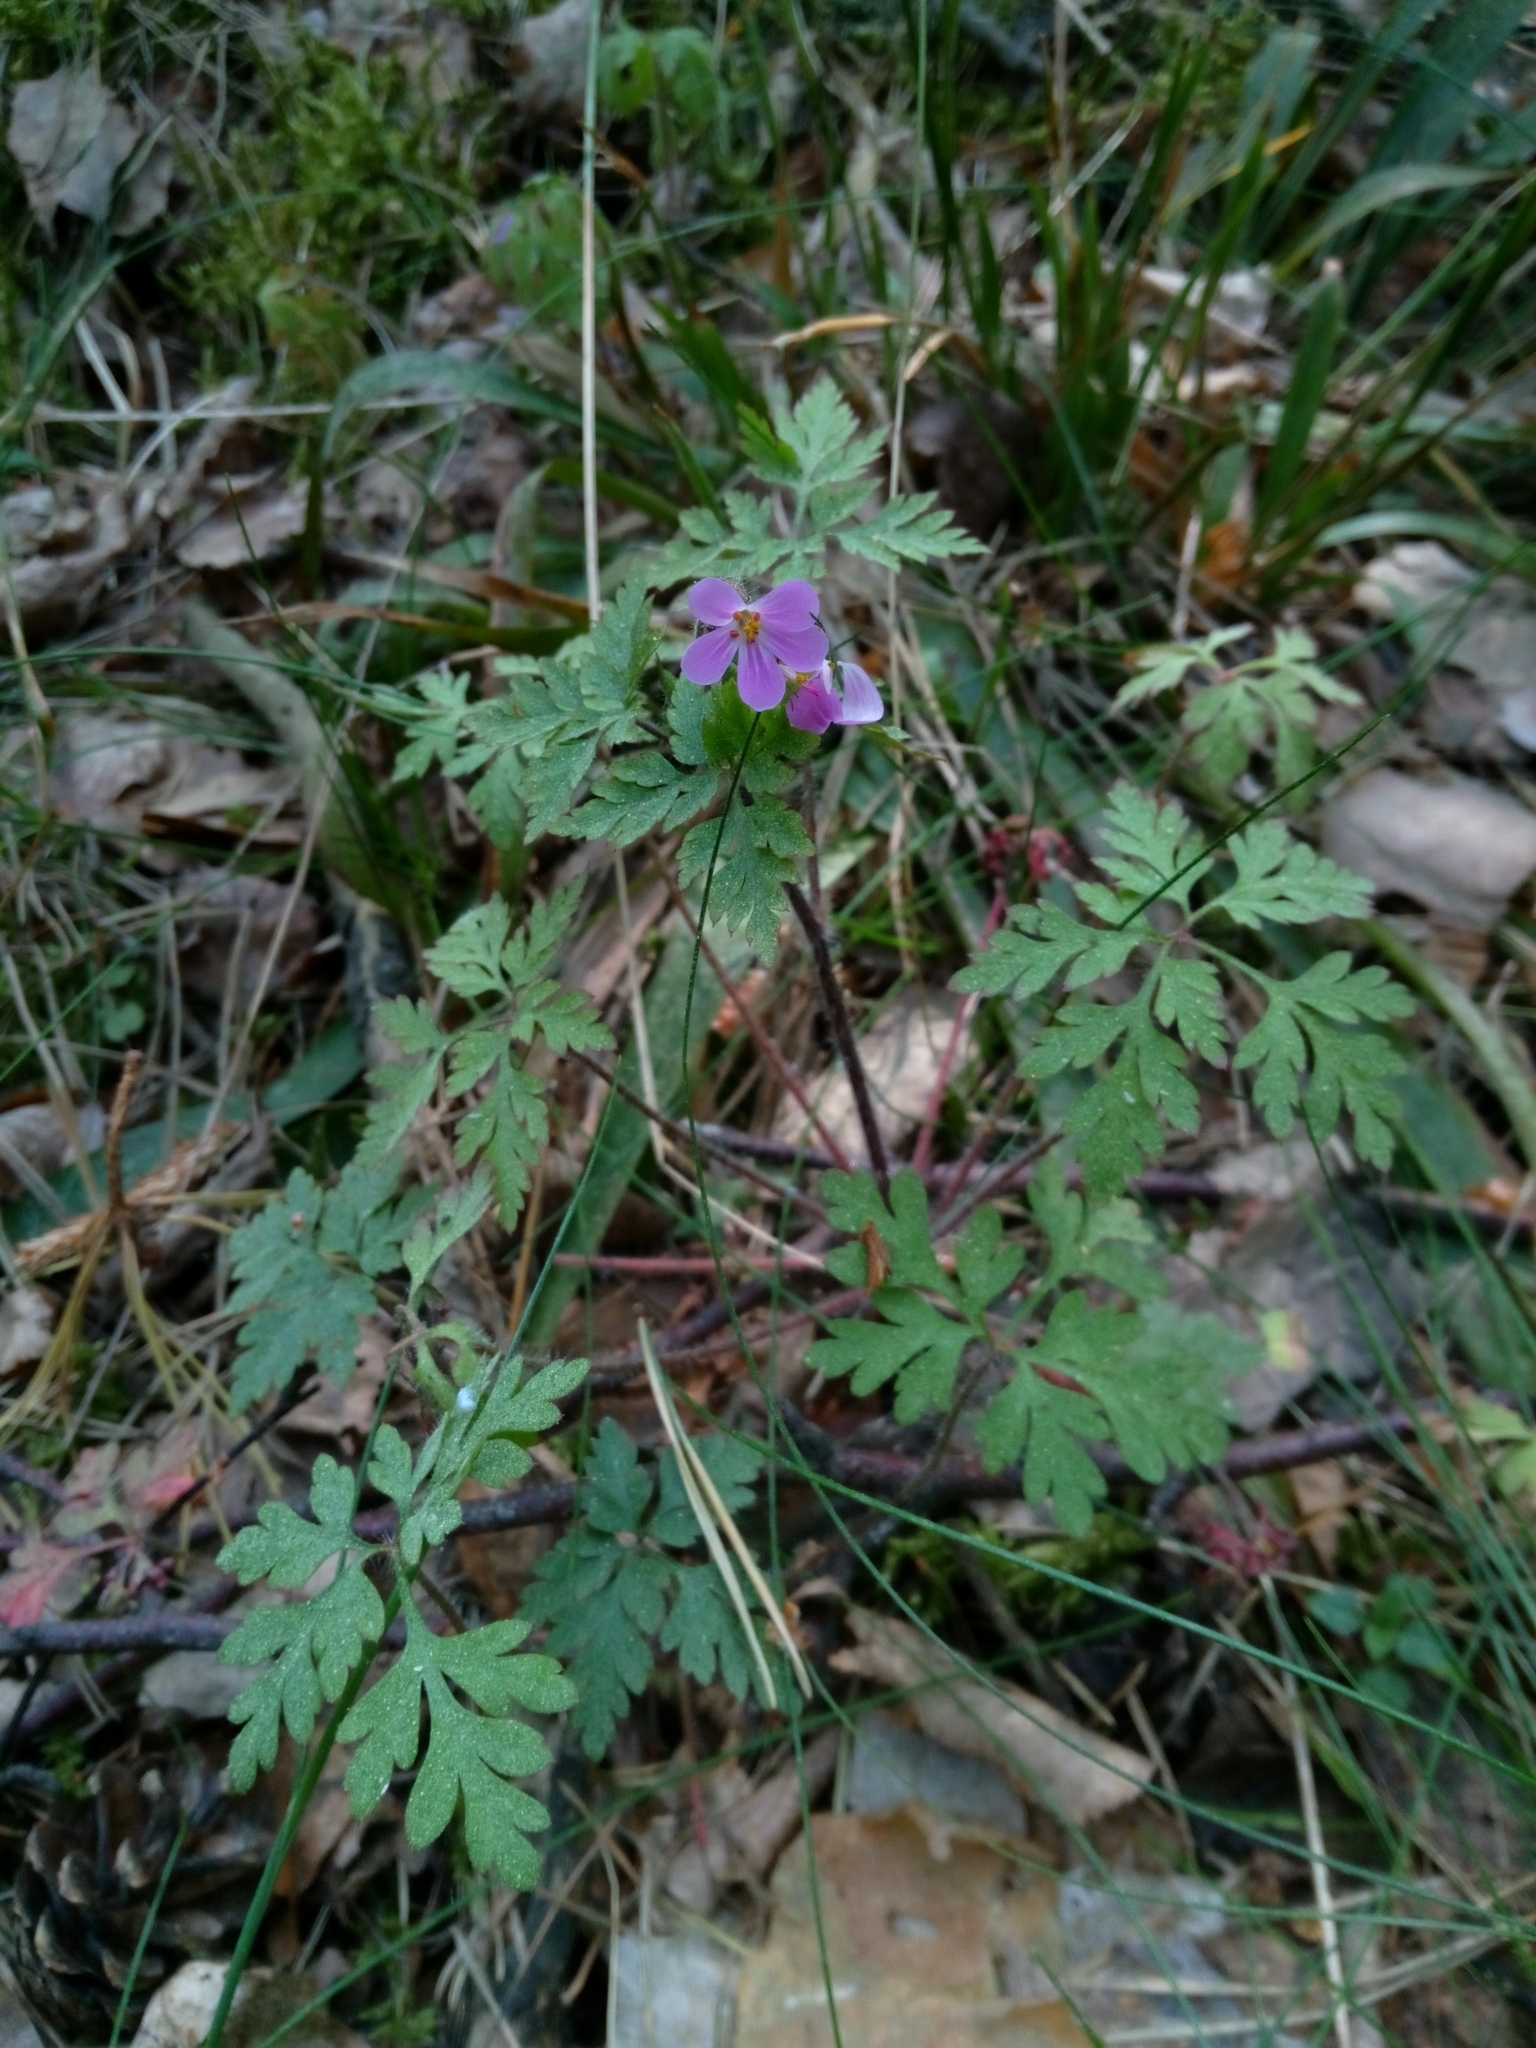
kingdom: Plantae
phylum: Tracheophyta
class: Magnoliopsida
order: Geraniales
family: Geraniaceae
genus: Geranium
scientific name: Geranium robertianum
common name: Herb-robert
